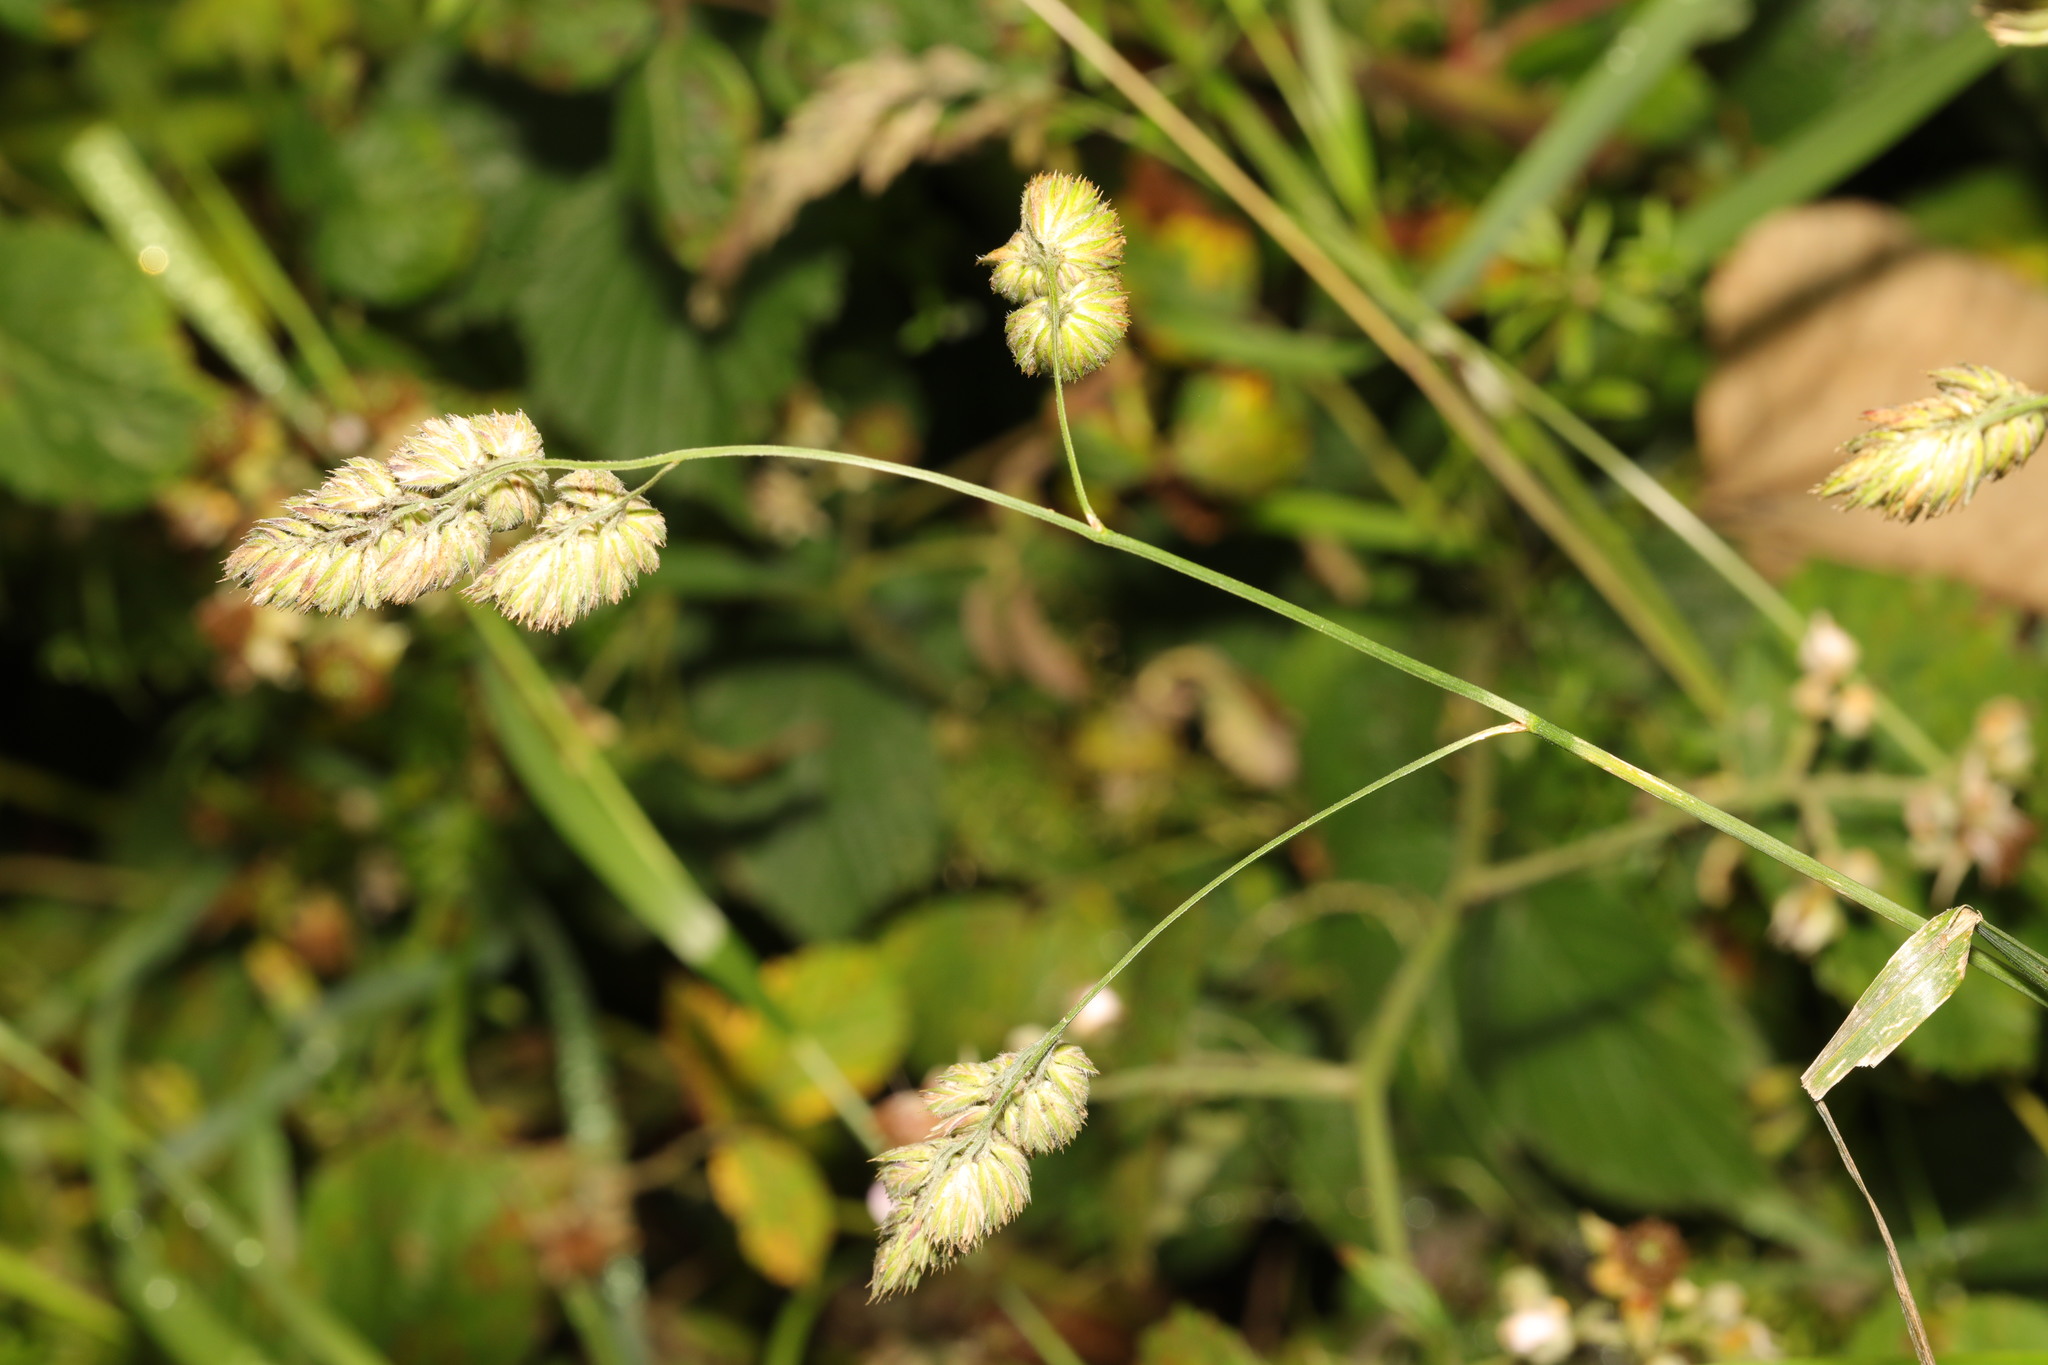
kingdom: Plantae
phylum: Tracheophyta
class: Liliopsida
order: Poales
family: Poaceae
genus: Dactylis
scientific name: Dactylis glomerata
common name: Orchardgrass
